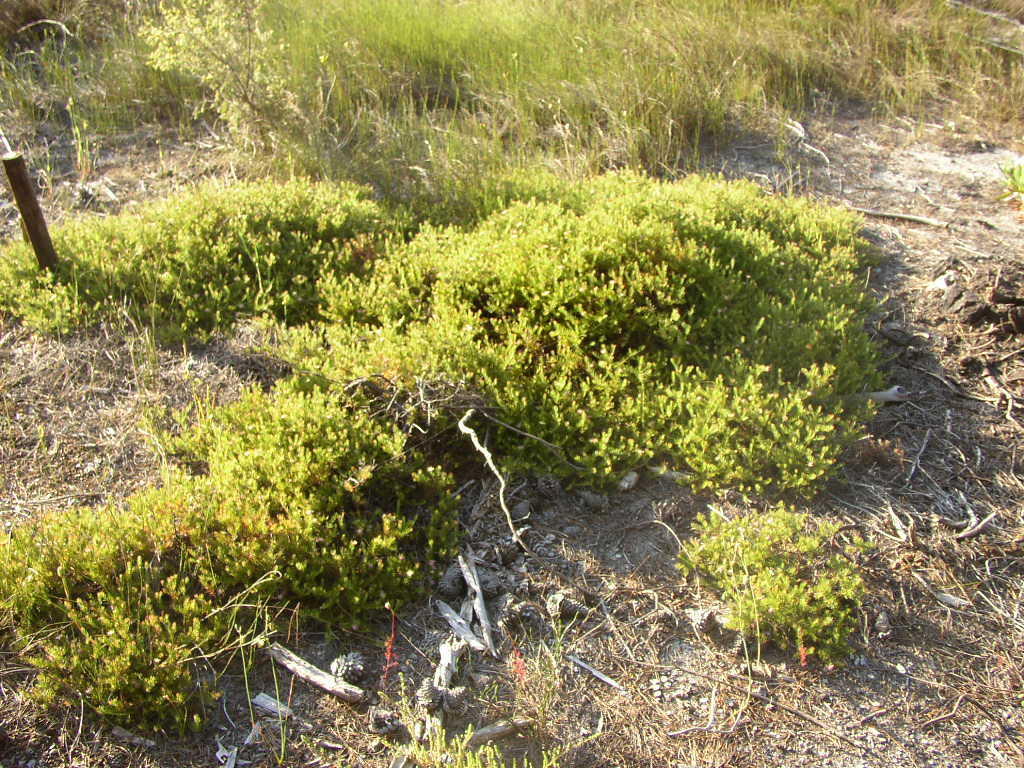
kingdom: Plantae
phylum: Tracheophyta
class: Magnoliopsida
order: Proteales
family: Proteaceae
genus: Diastella
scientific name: Diastella proteoides
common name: Flats silkypuff
